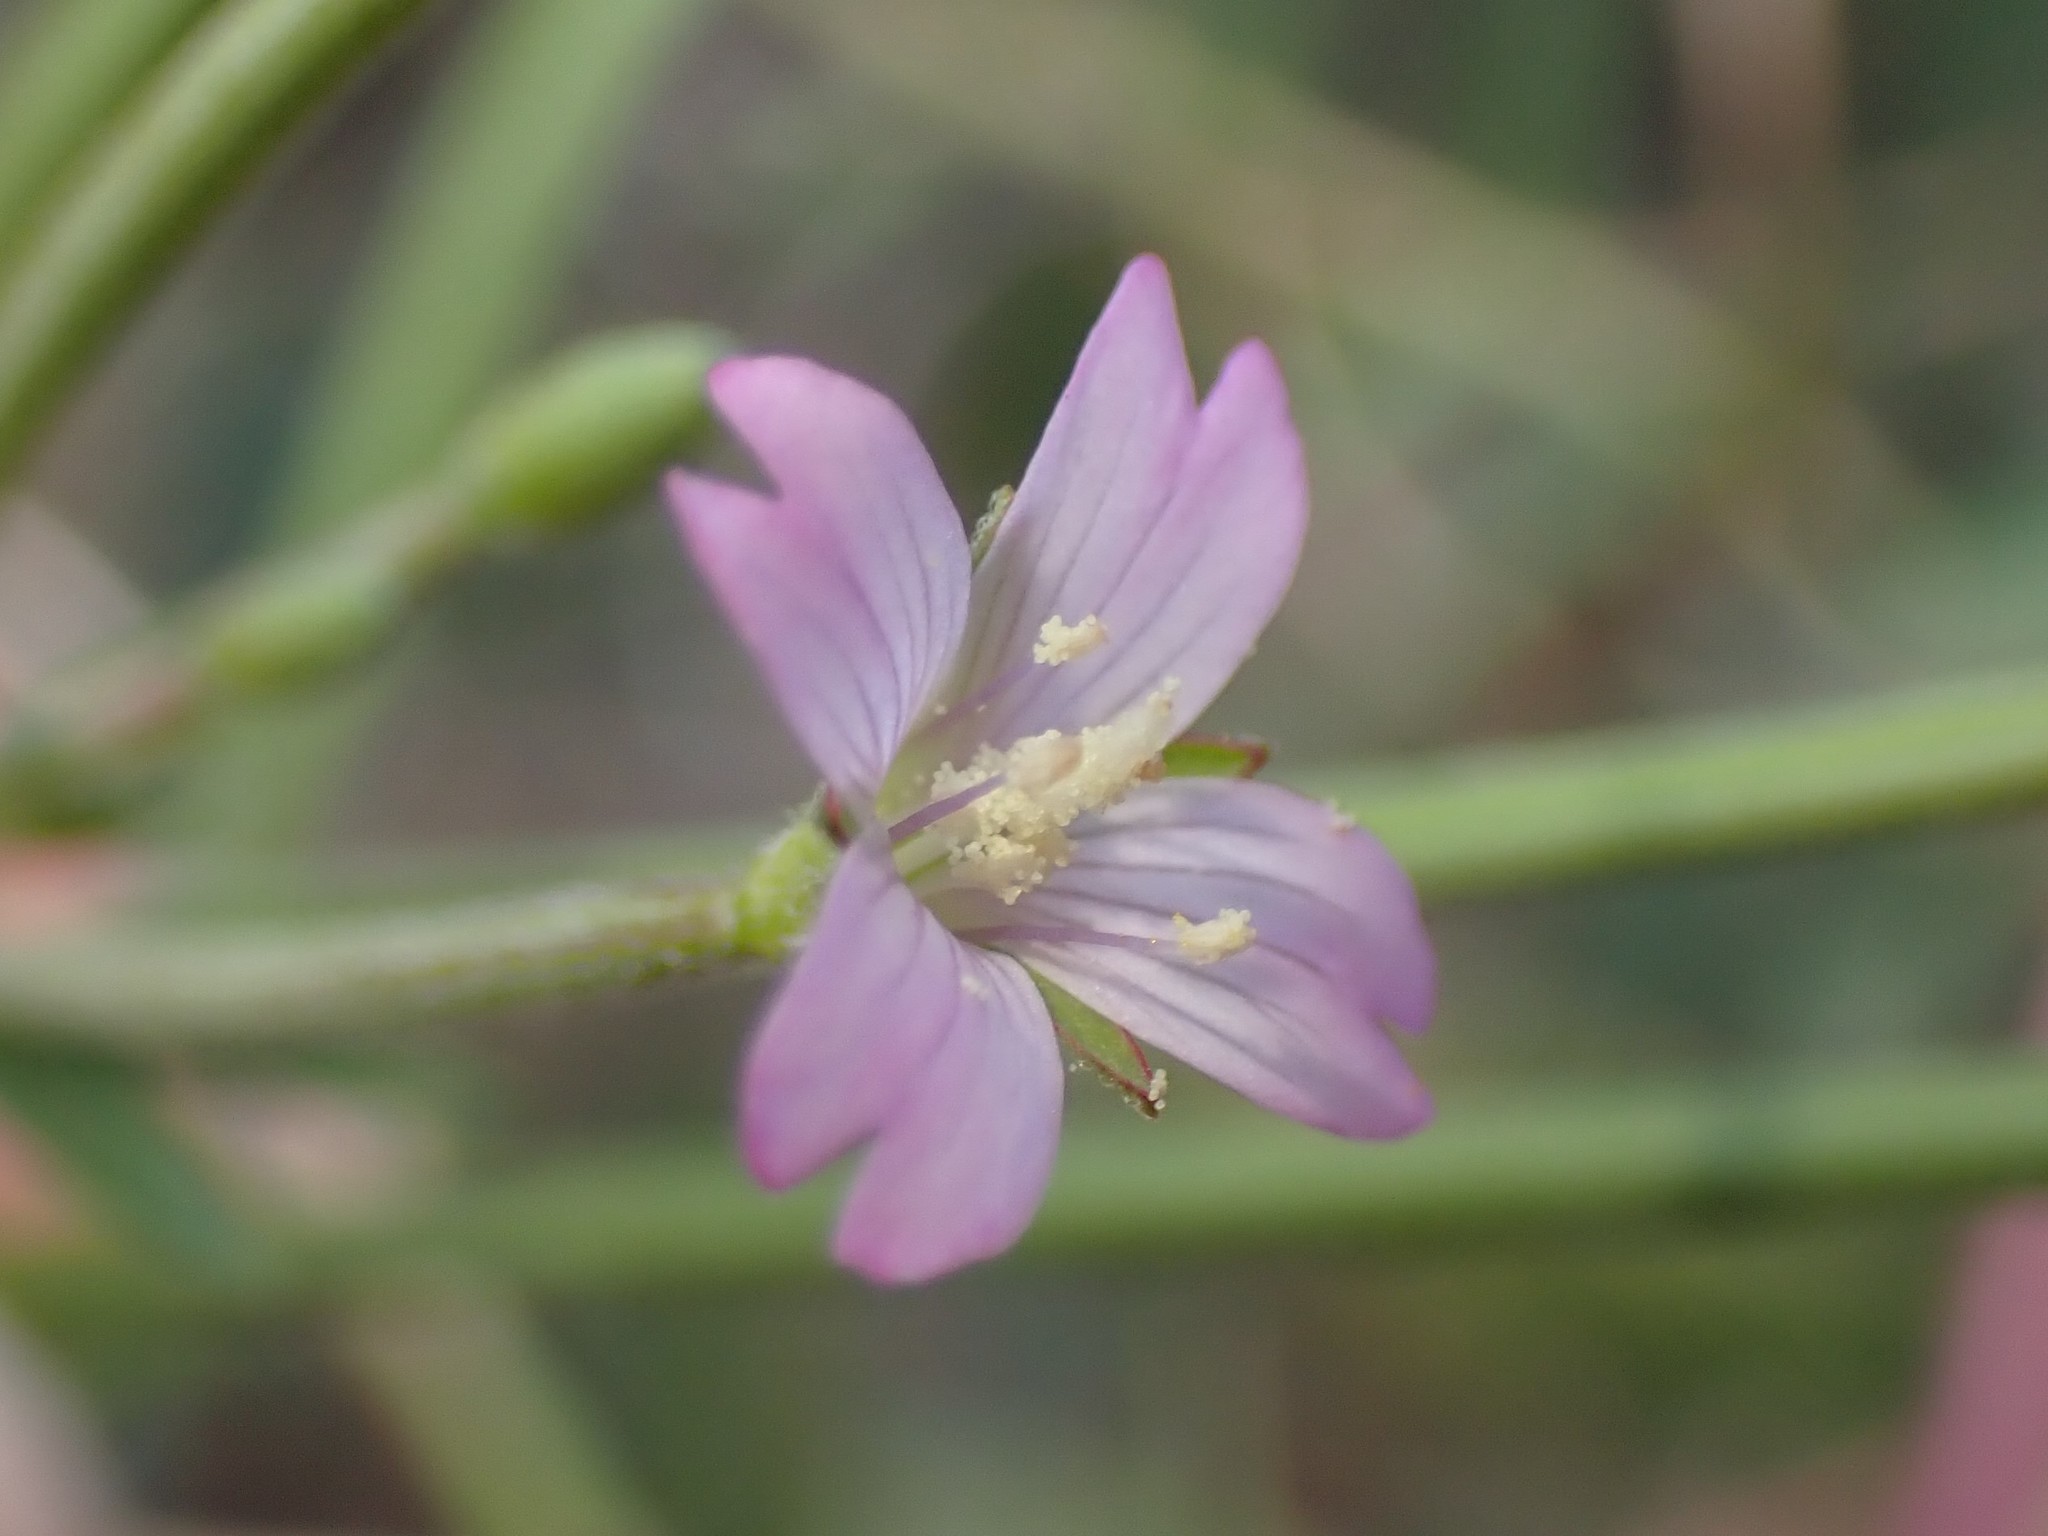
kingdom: Plantae
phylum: Tracheophyta
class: Magnoliopsida
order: Myrtales
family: Onagraceae
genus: Epilobium
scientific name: Epilobium ciliatum
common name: American willowherb
